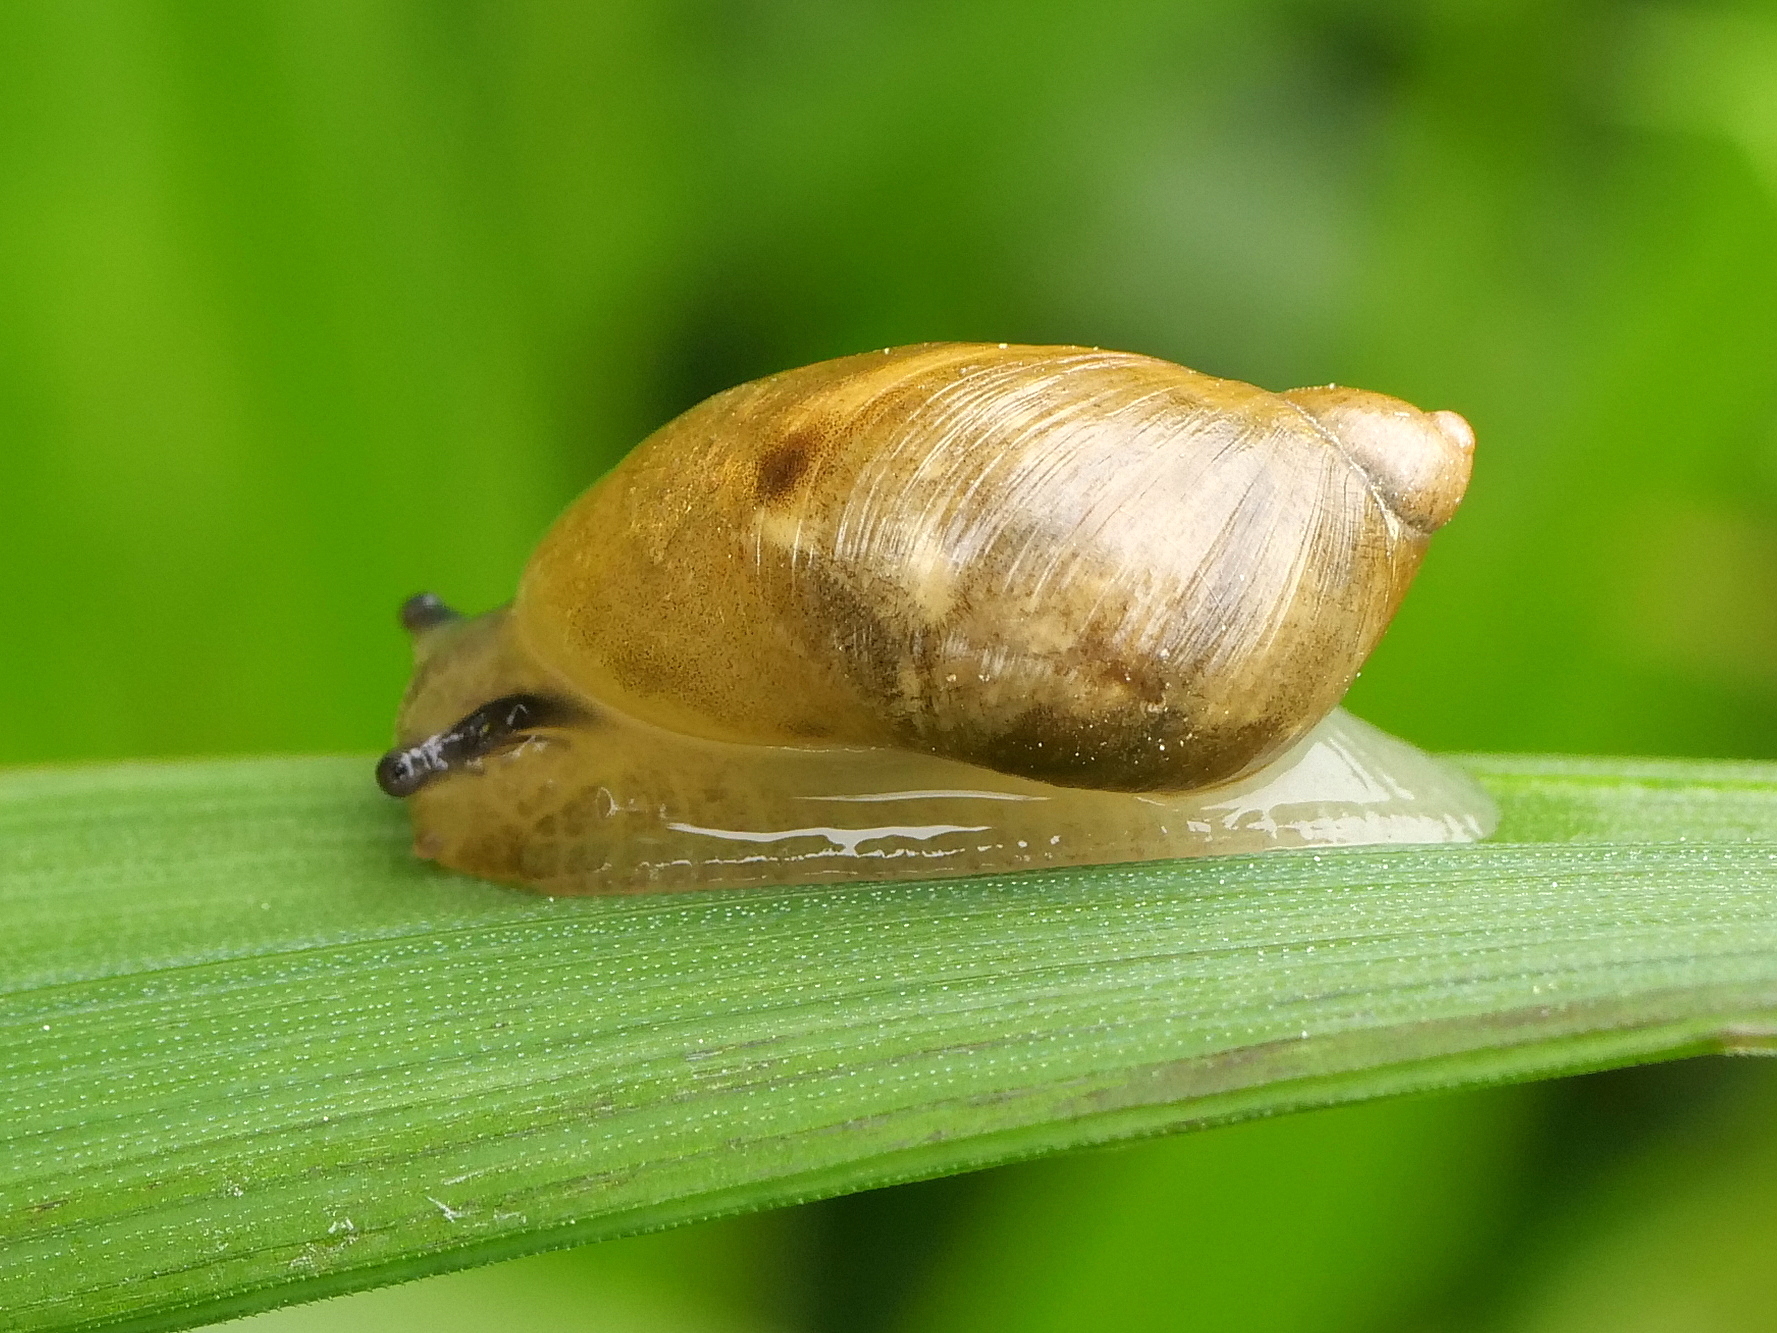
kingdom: Animalia
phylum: Mollusca
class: Gastropoda
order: Stylommatophora
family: Succineidae
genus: Succinea
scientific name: Succinea putris
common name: European ambersnail
